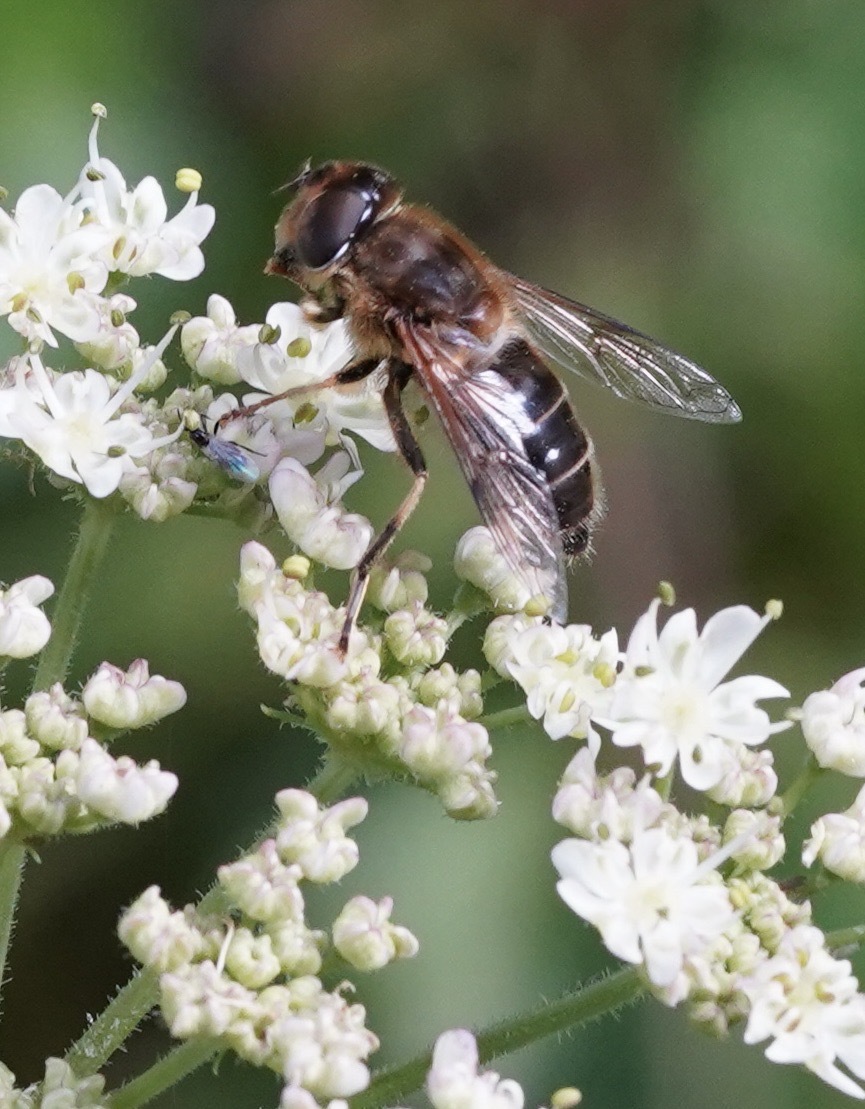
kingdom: Animalia
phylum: Arthropoda
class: Insecta
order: Diptera
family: Syrphidae
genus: Eristalis
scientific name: Eristalis pertinax
